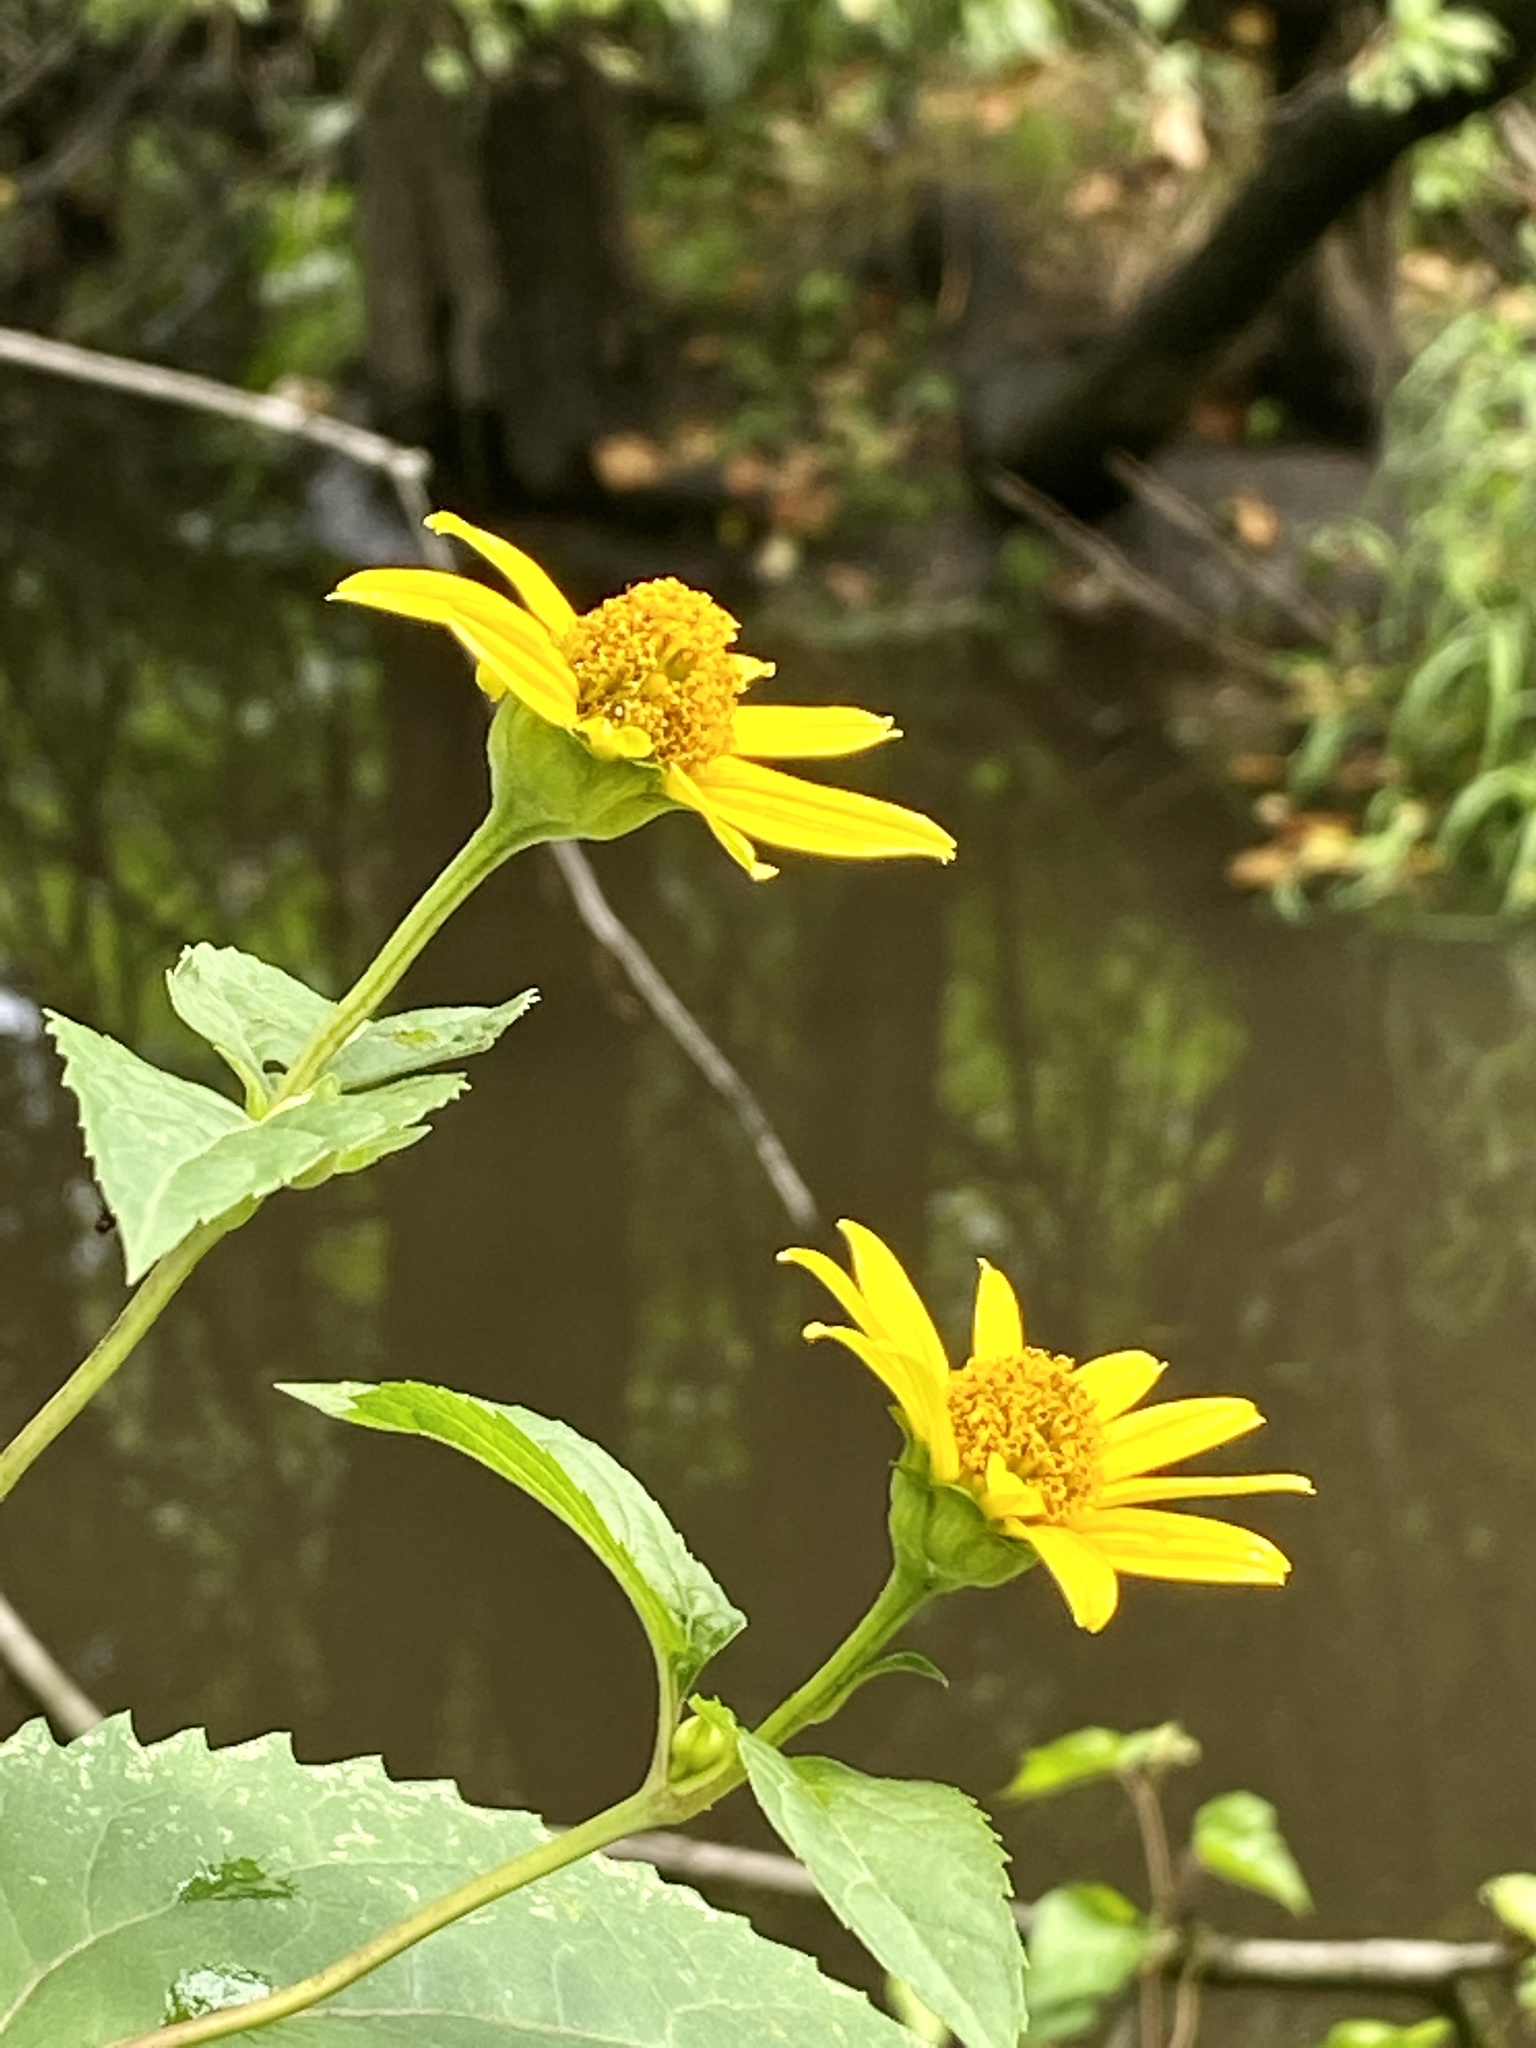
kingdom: Plantae
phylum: Tracheophyta
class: Magnoliopsida
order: Asterales
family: Asteraceae
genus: Heliopsis
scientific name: Heliopsis helianthoides
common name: False sunflower
